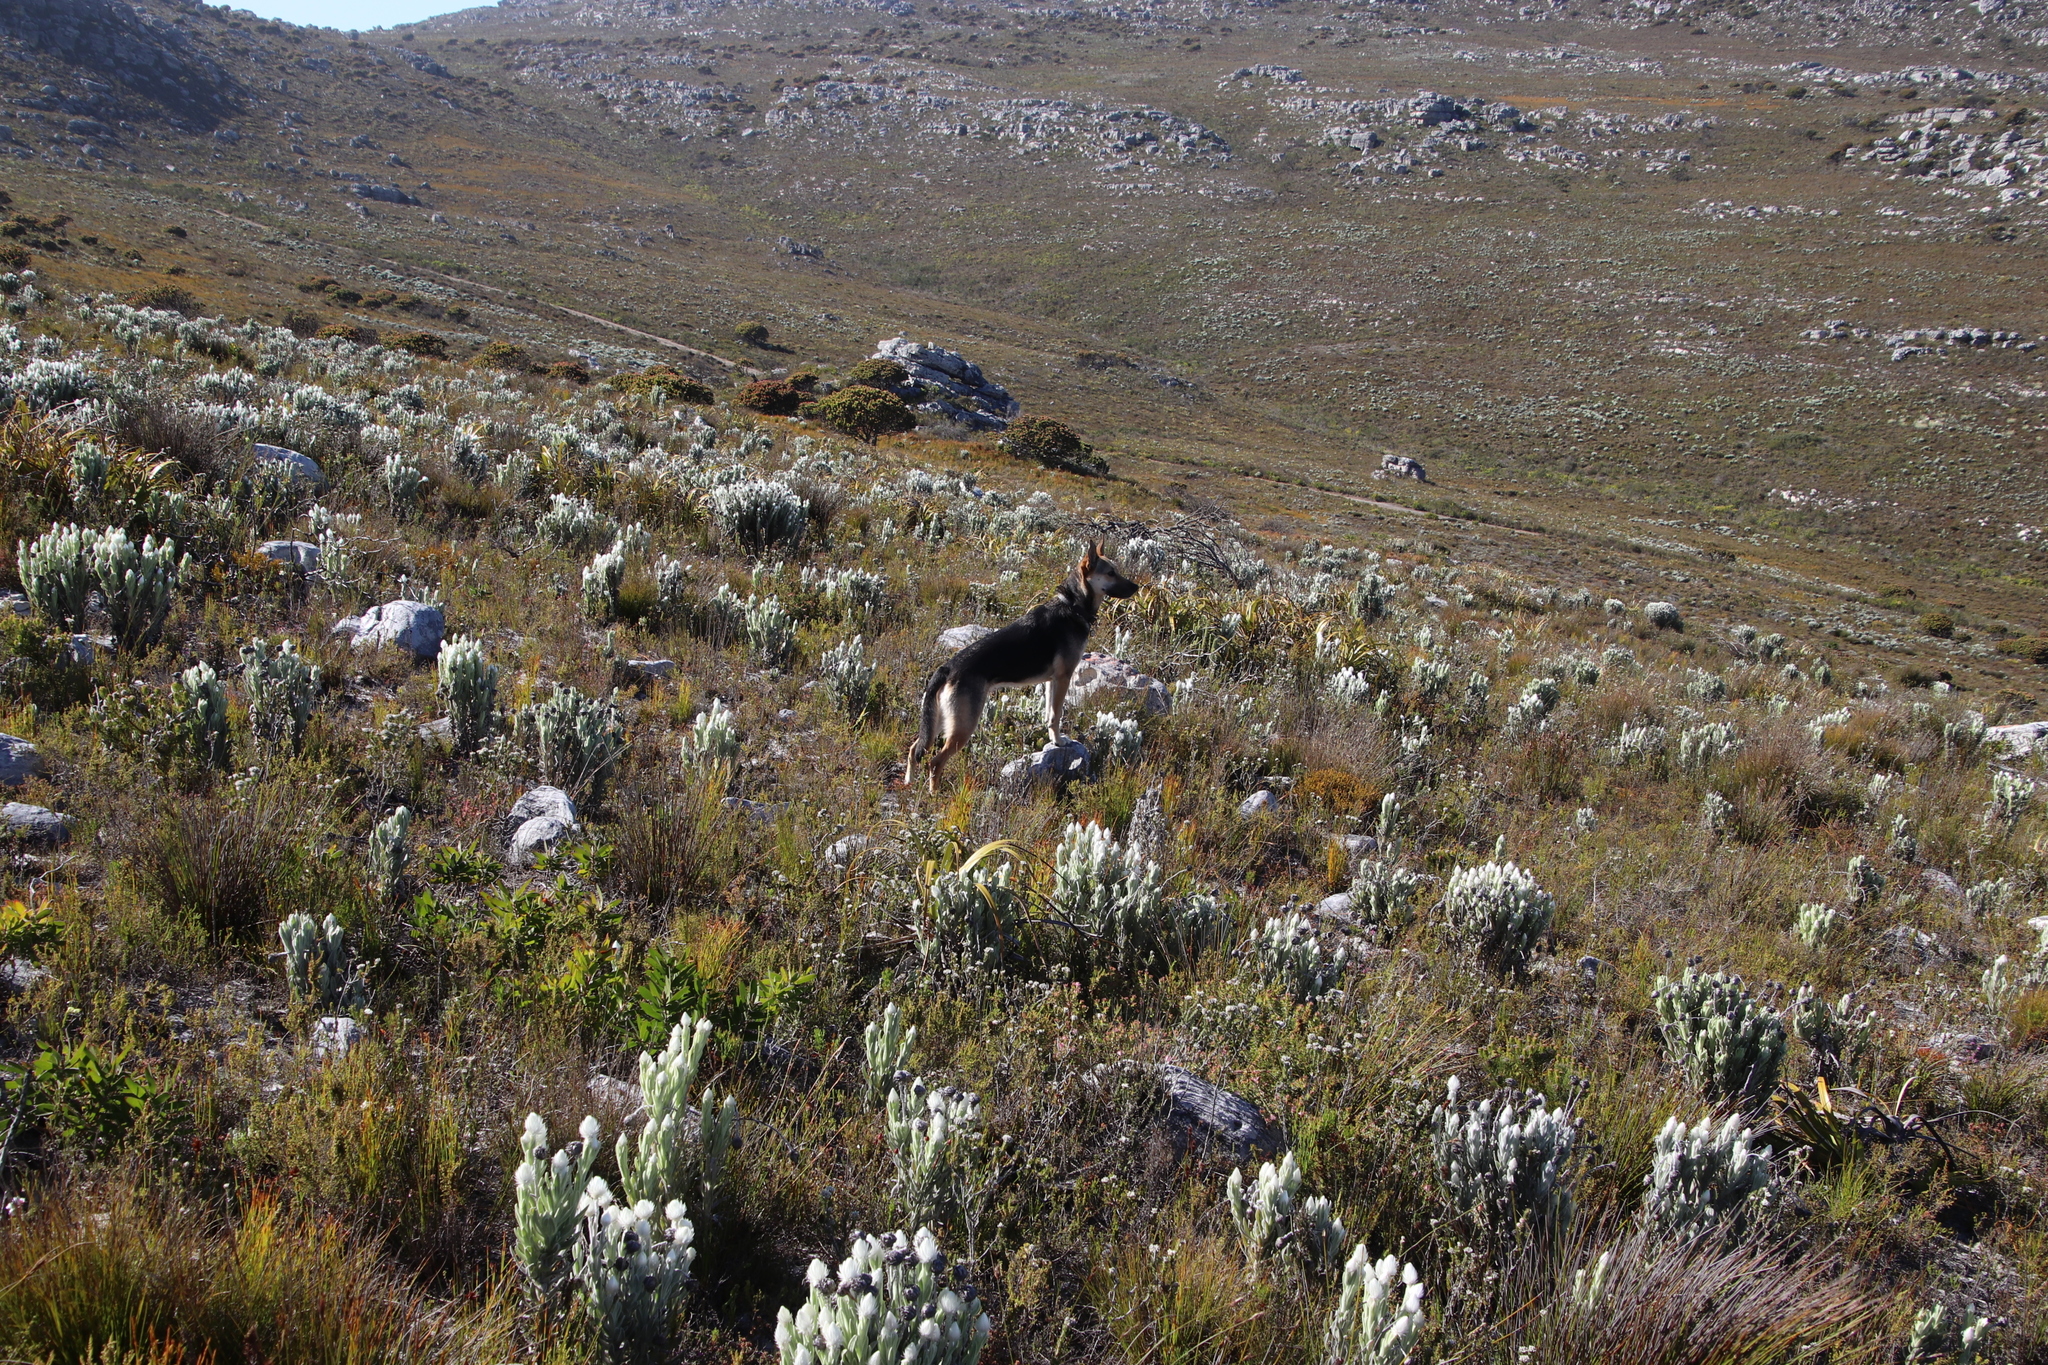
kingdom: Plantae
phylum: Tracheophyta
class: Magnoliopsida
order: Asterales
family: Asteraceae
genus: Syncarpha
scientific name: Syncarpha vestita
